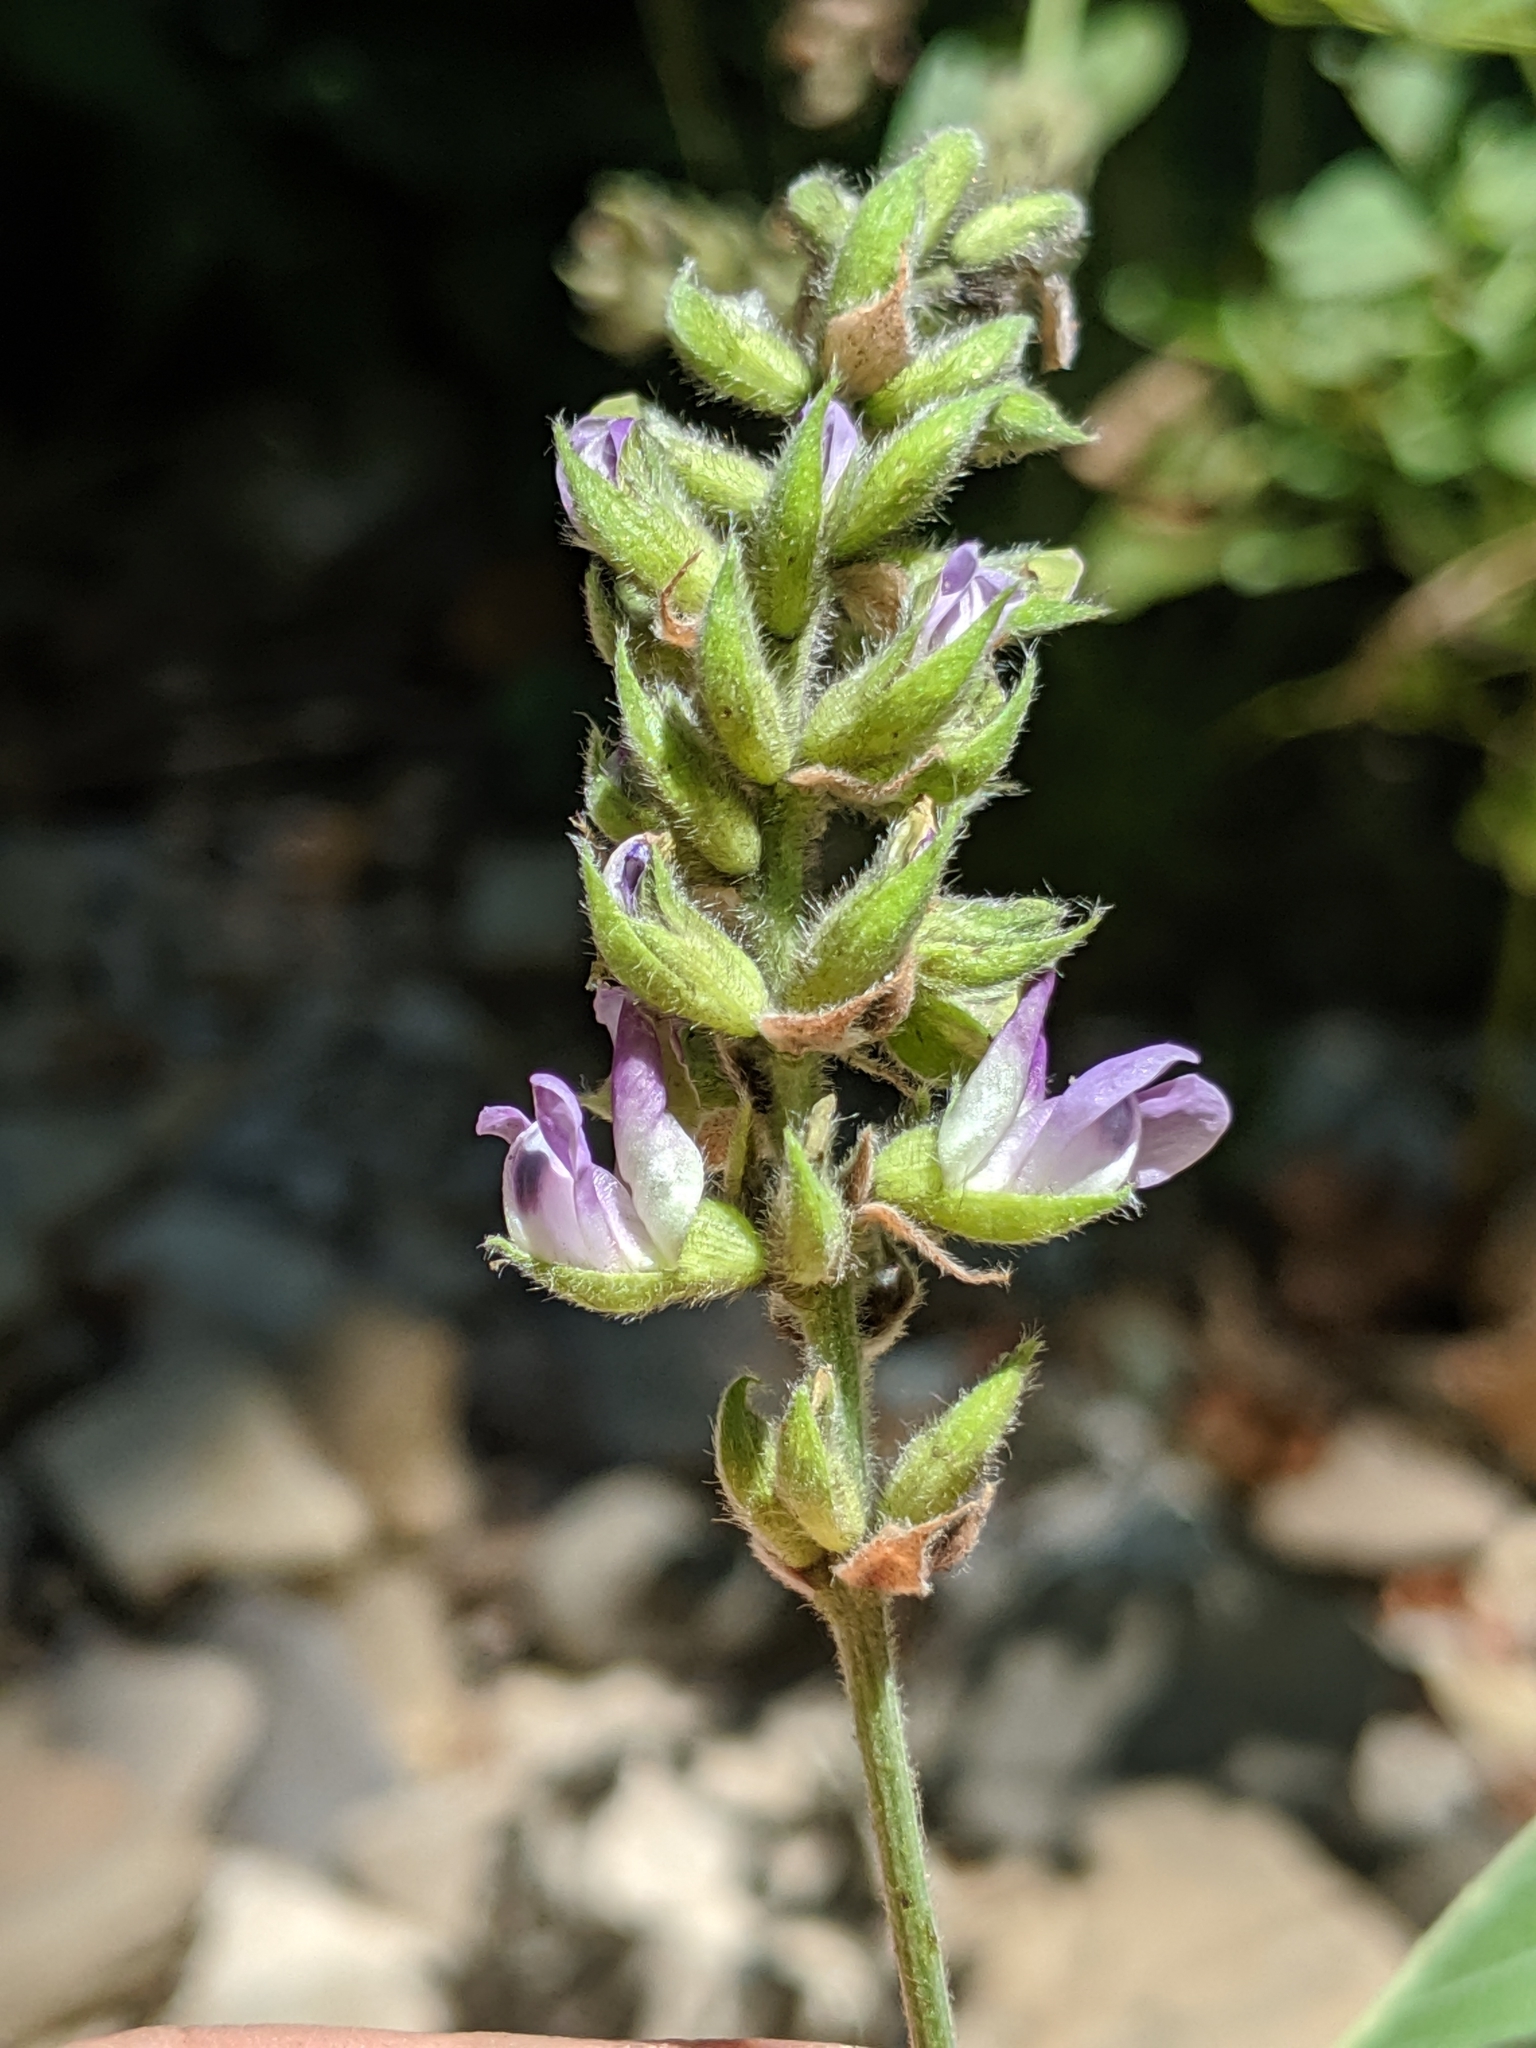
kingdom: Plantae
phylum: Tracheophyta
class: Magnoliopsida
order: Fabales
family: Fabaceae
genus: Hoita
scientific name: Hoita macrostachya
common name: Leatherroot
